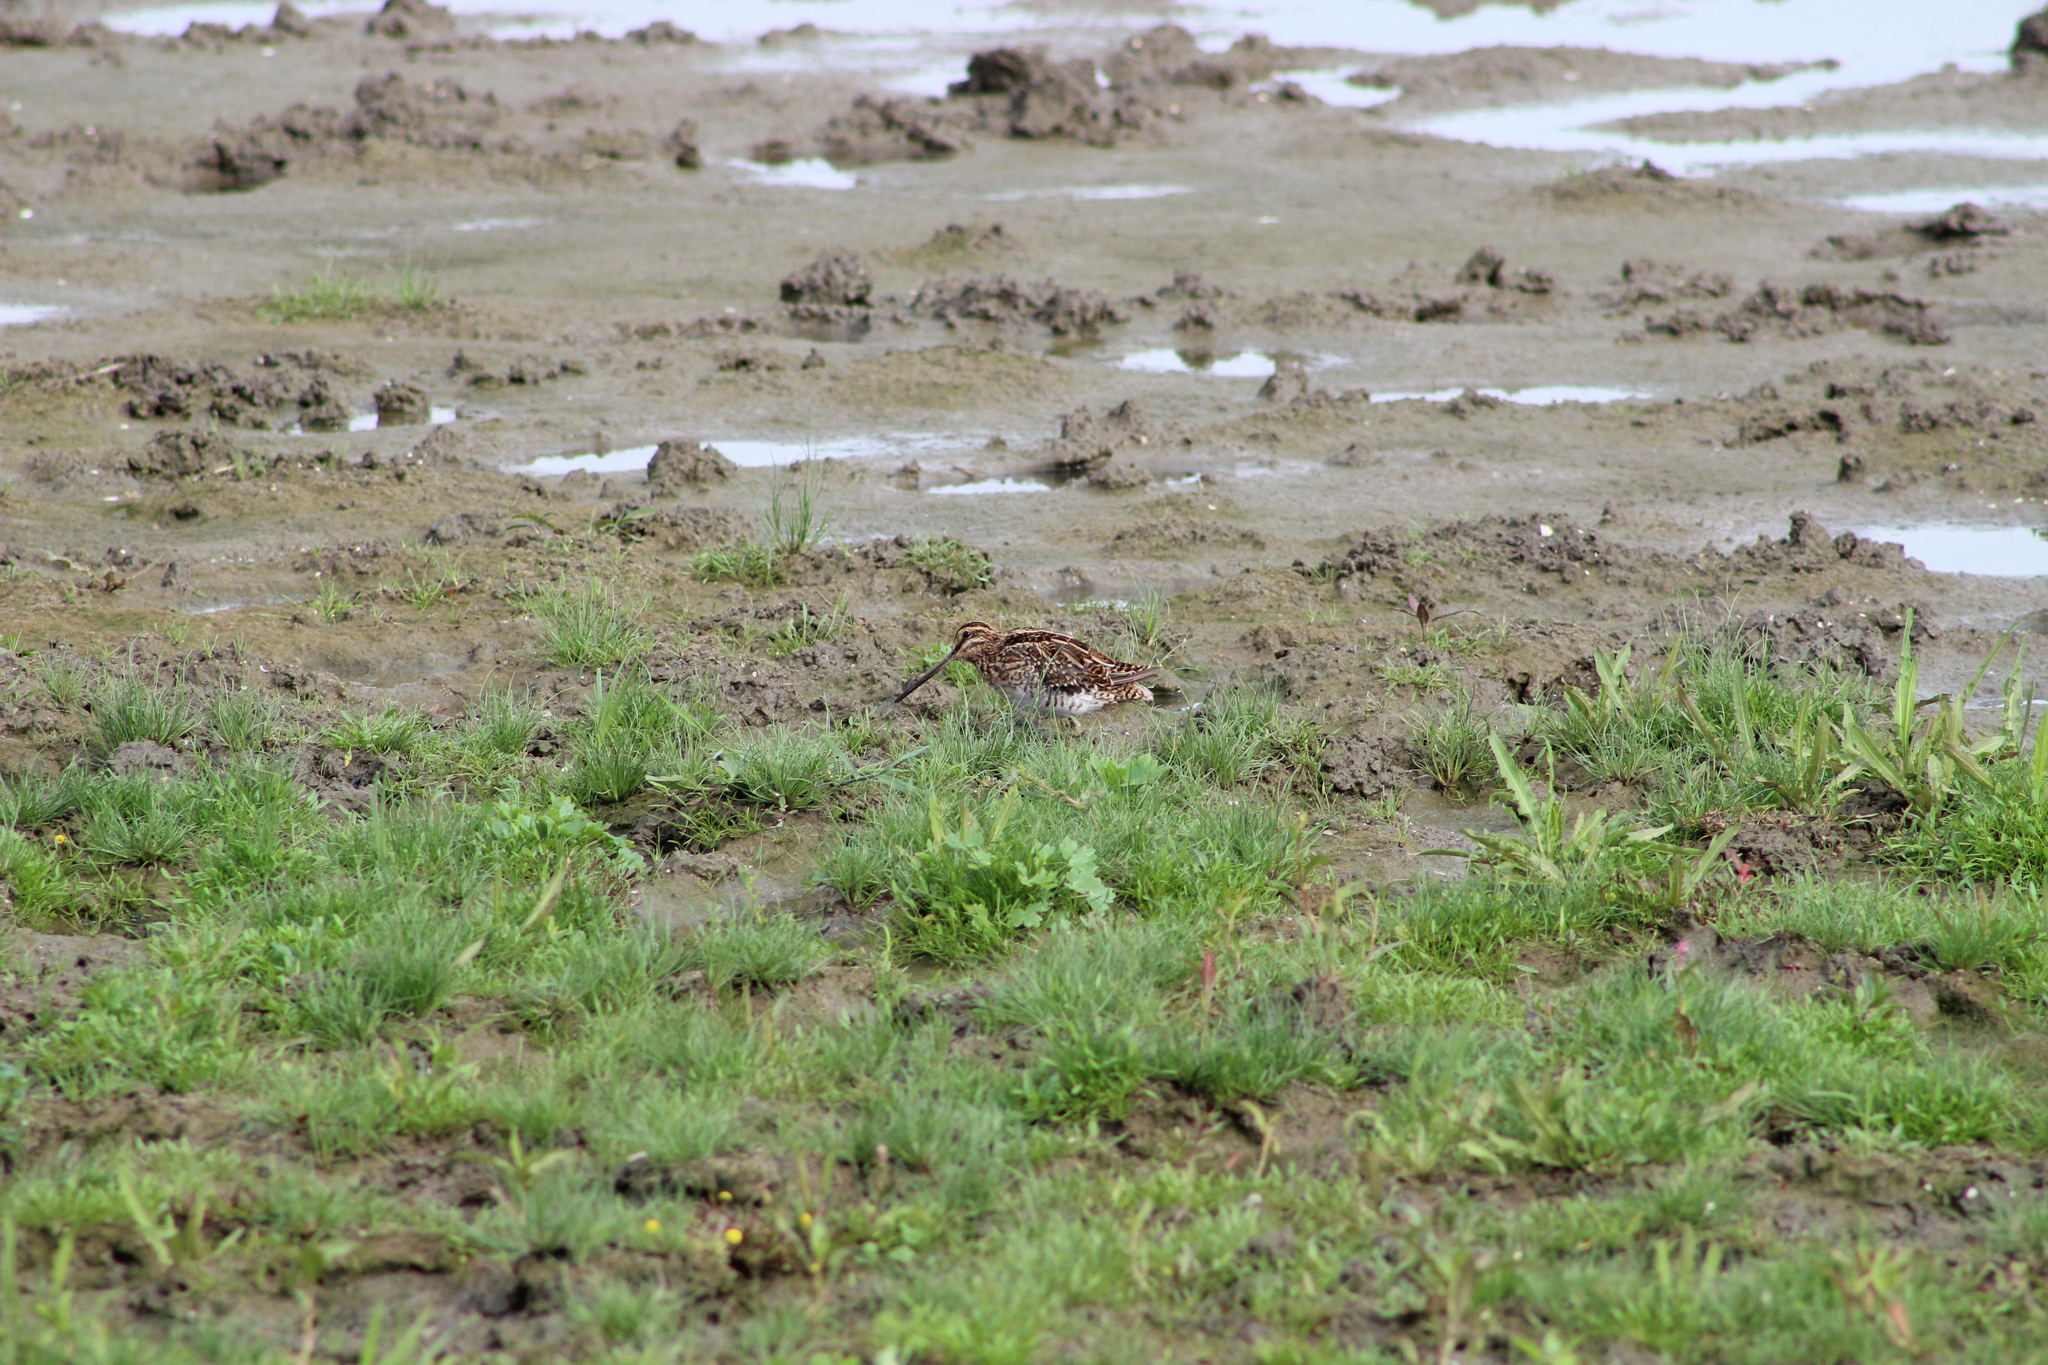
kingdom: Animalia
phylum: Chordata
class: Aves
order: Charadriiformes
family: Scolopacidae
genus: Gallinago
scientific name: Gallinago gallinago
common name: Common snipe
